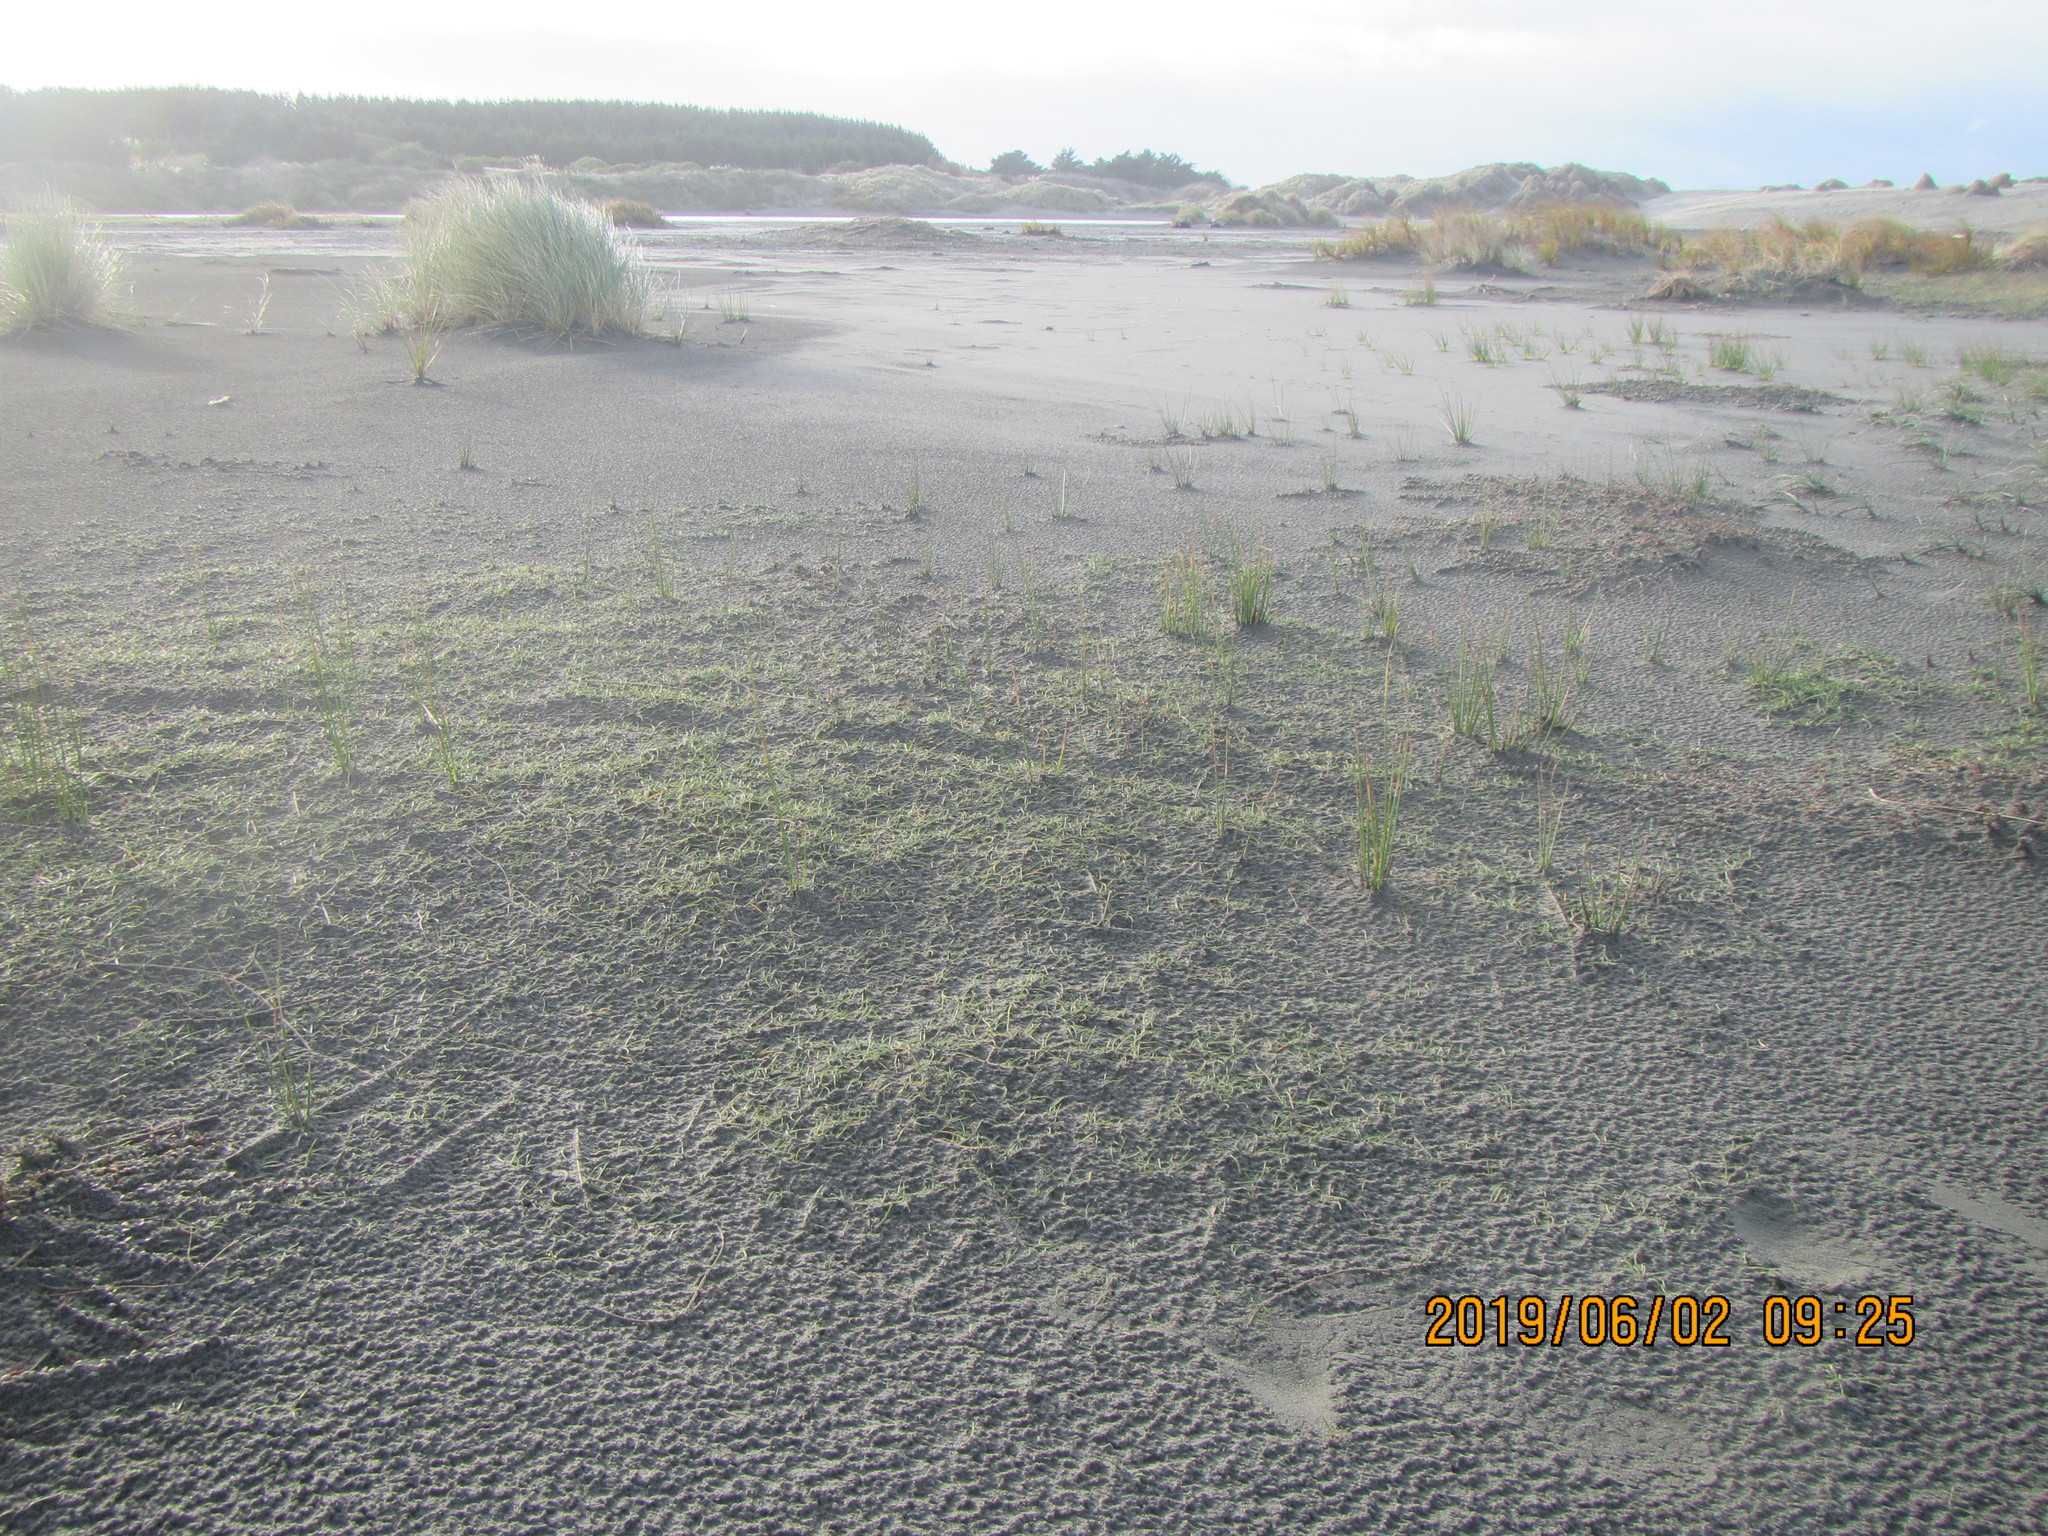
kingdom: Plantae
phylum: Tracheophyta
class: Liliopsida
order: Alismatales
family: Juncaginaceae
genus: Triglochin
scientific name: Triglochin striata
